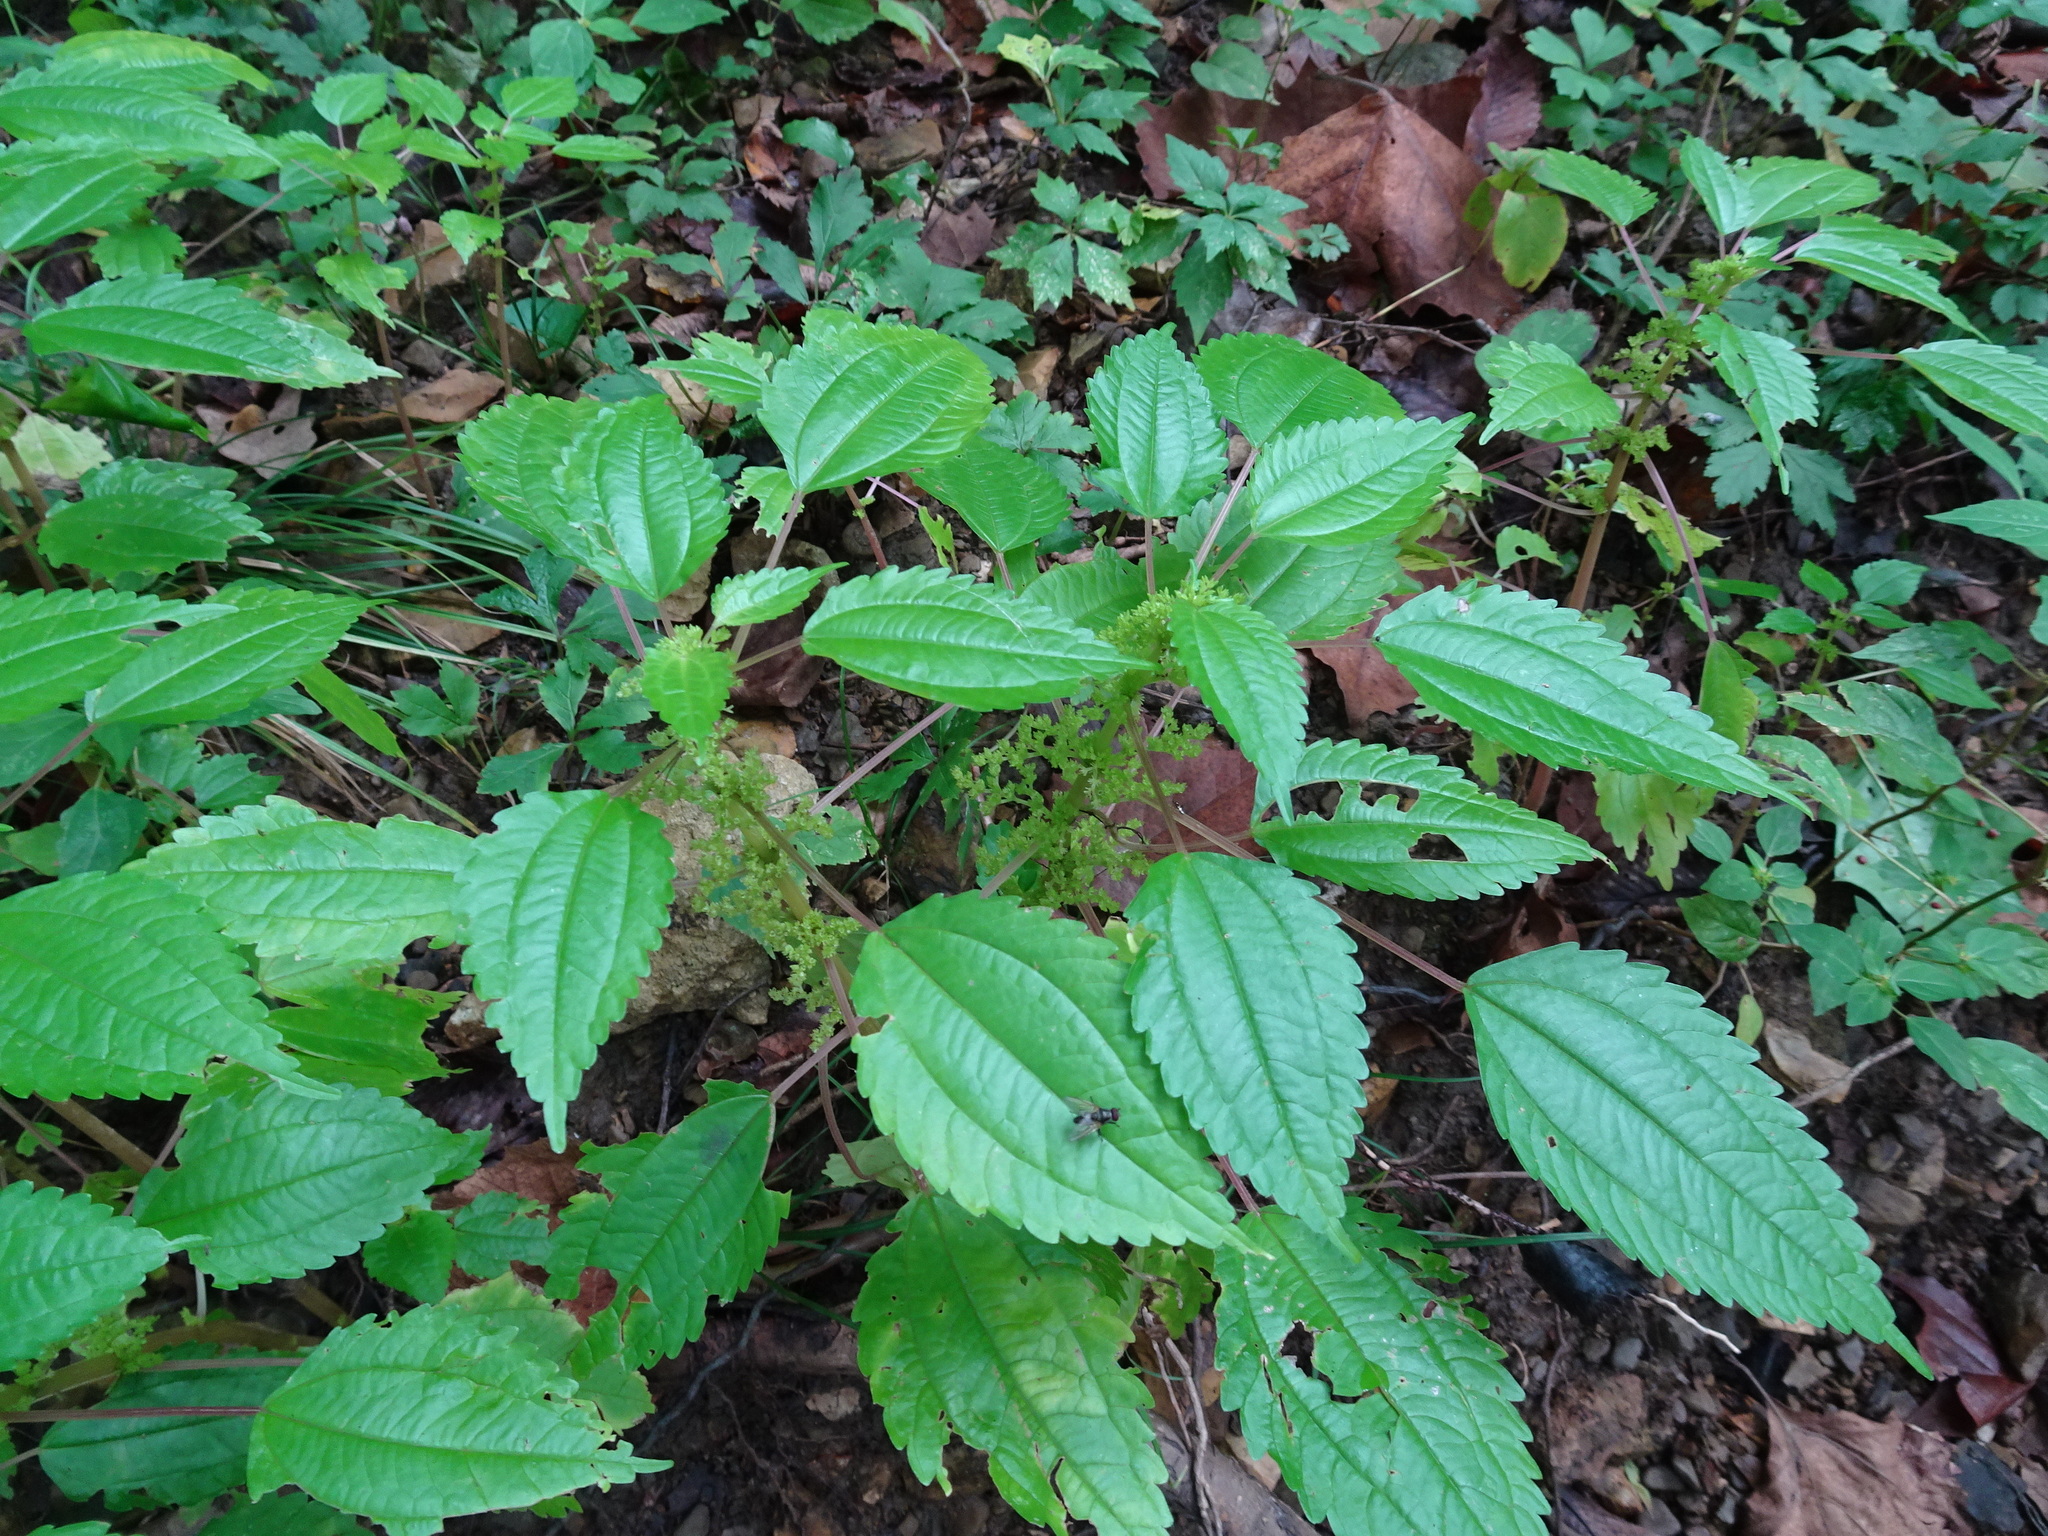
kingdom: Plantae
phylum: Tracheophyta
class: Magnoliopsida
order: Rosales
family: Urticaceae
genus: Pilea
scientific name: Pilea pumila
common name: Clearweed
